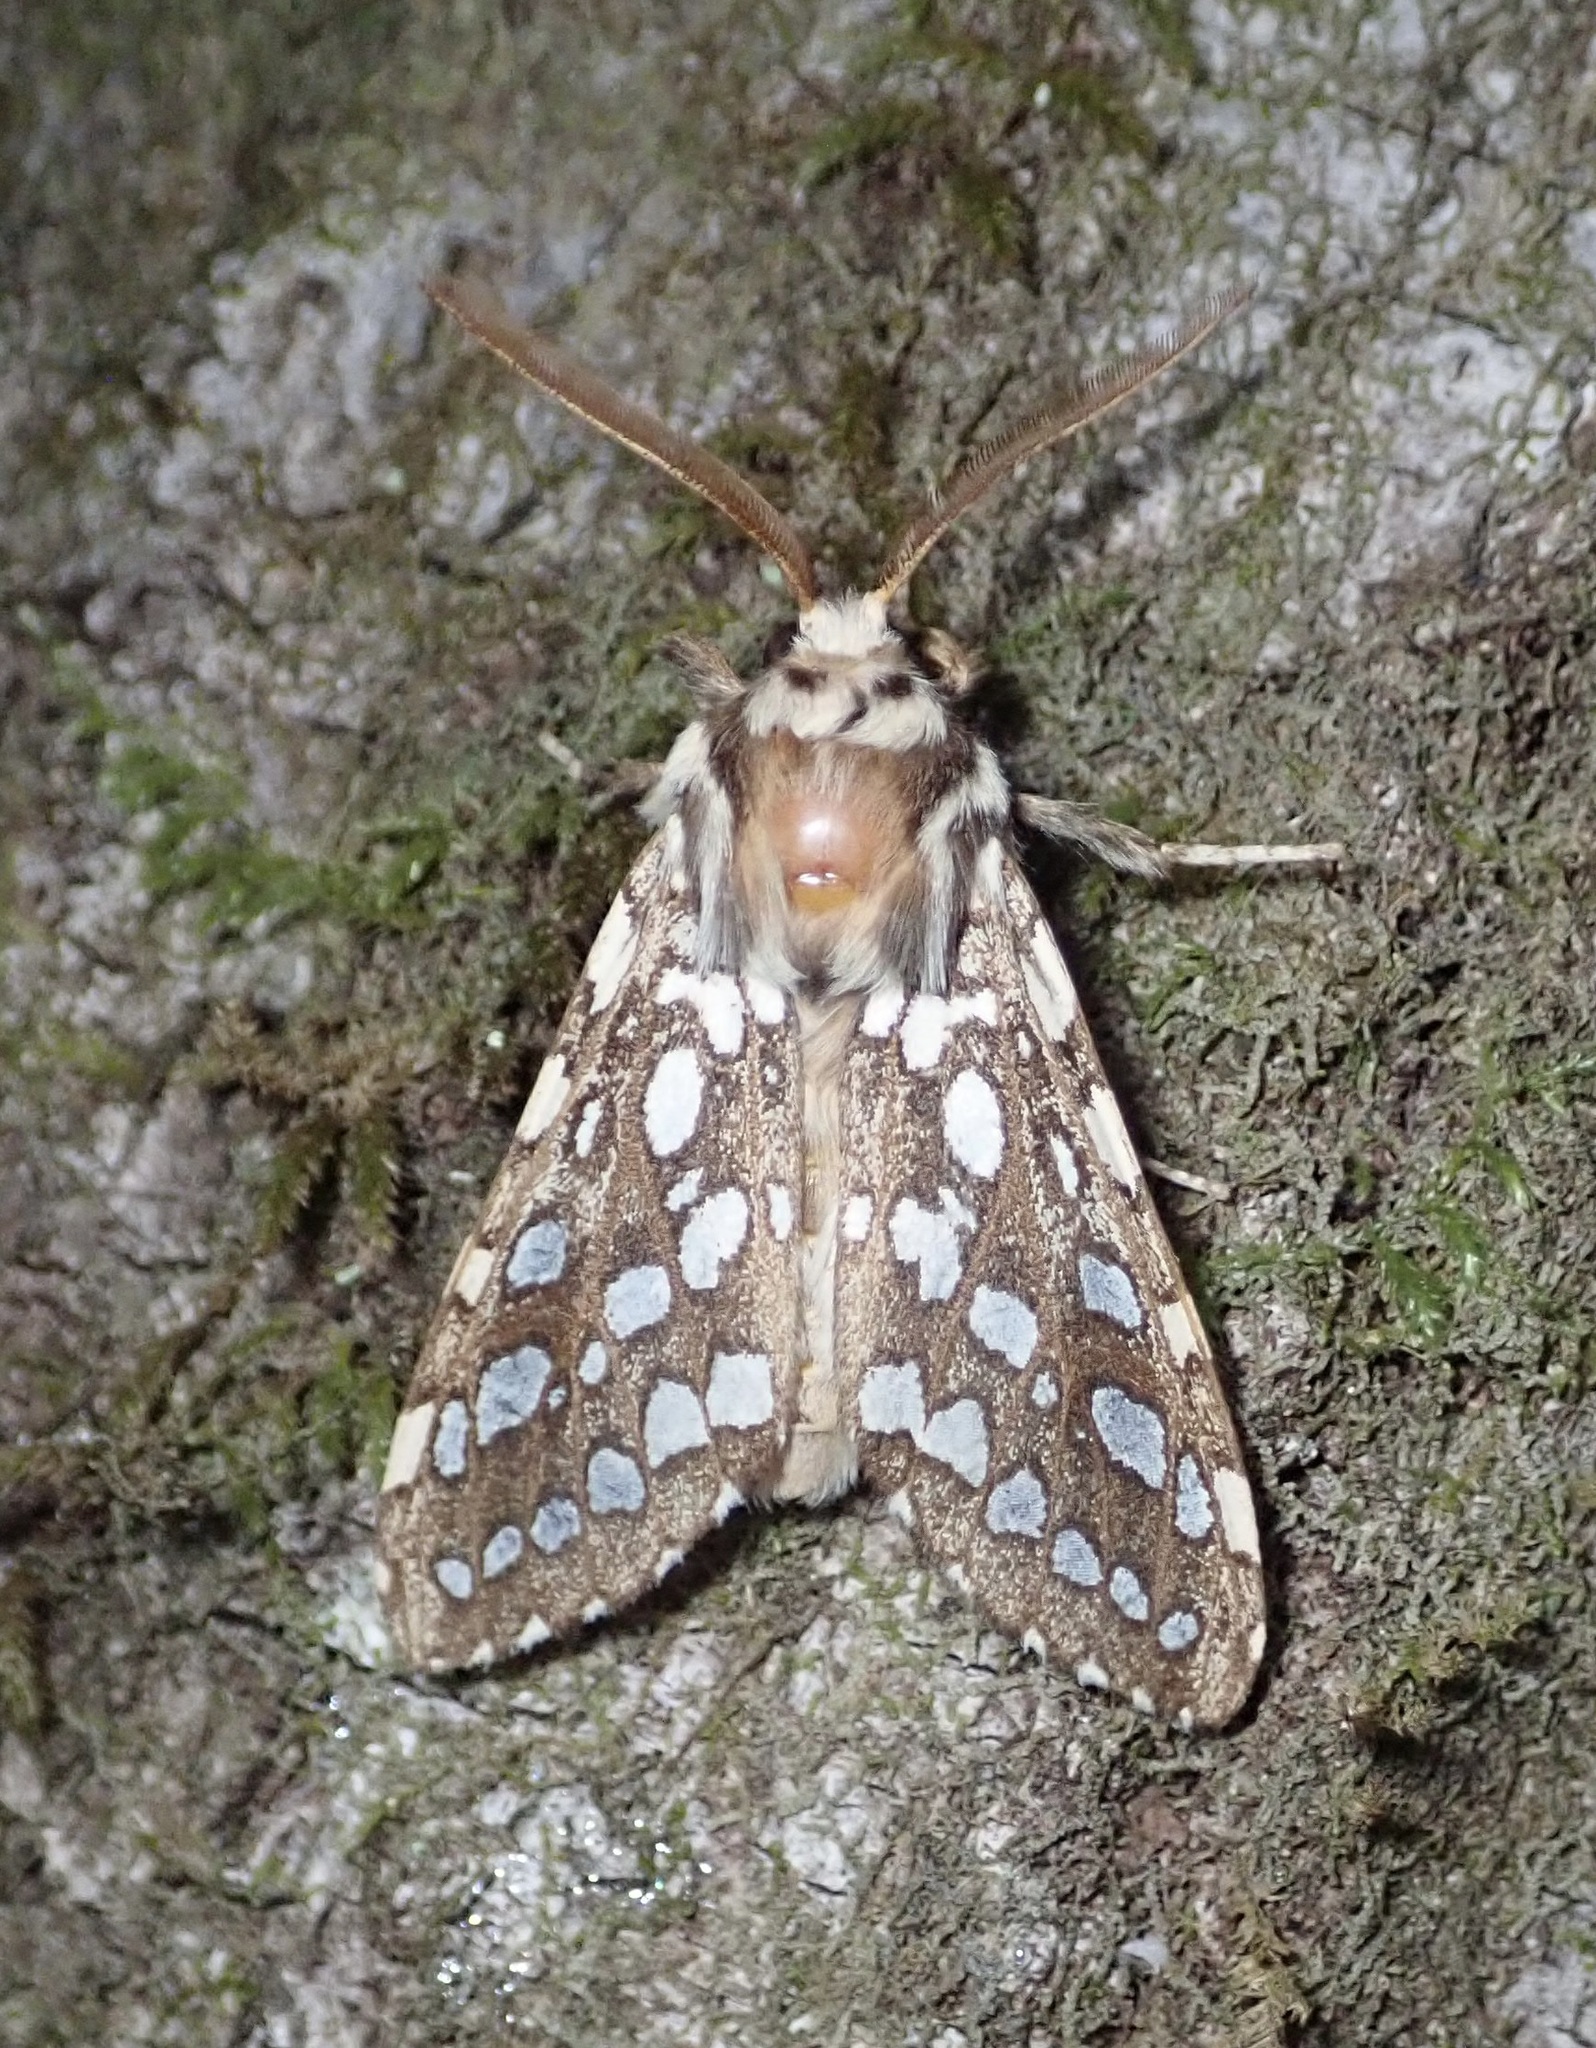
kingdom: Animalia
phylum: Arthropoda
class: Insecta
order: Lepidoptera
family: Erebidae
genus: Lophocampa
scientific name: Lophocampa argentata
